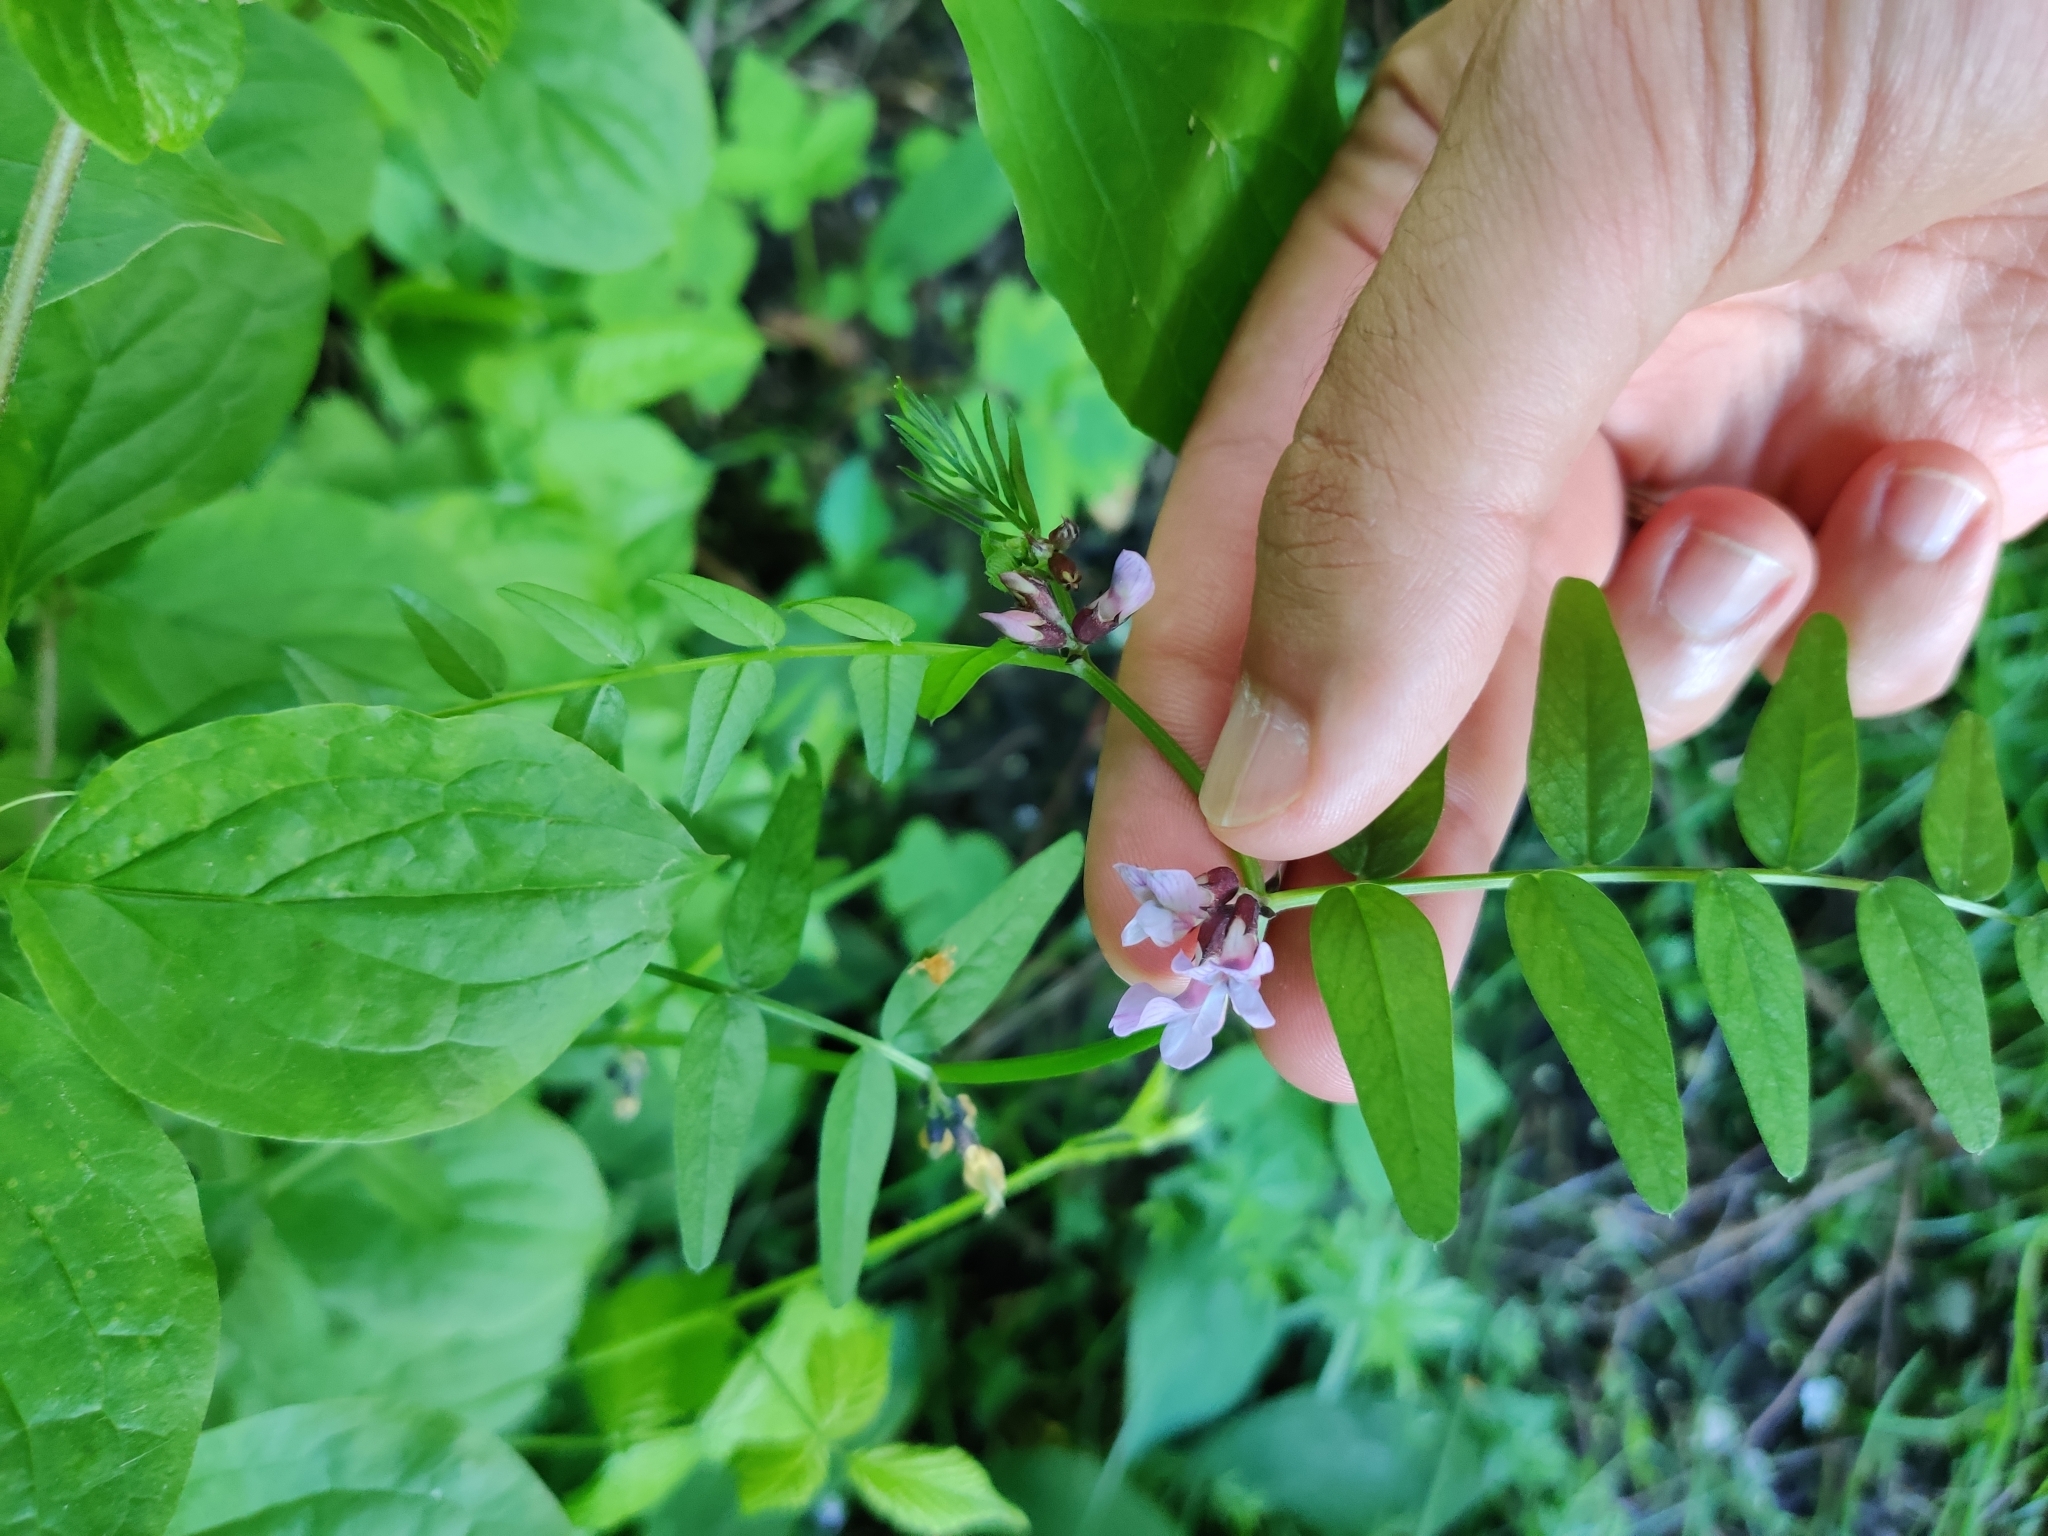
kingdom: Plantae
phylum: Tracheophyta
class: Magnoliopsida
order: Fabales
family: Fabaceae
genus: Vicia
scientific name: Vicia sepium
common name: Bush vetch
